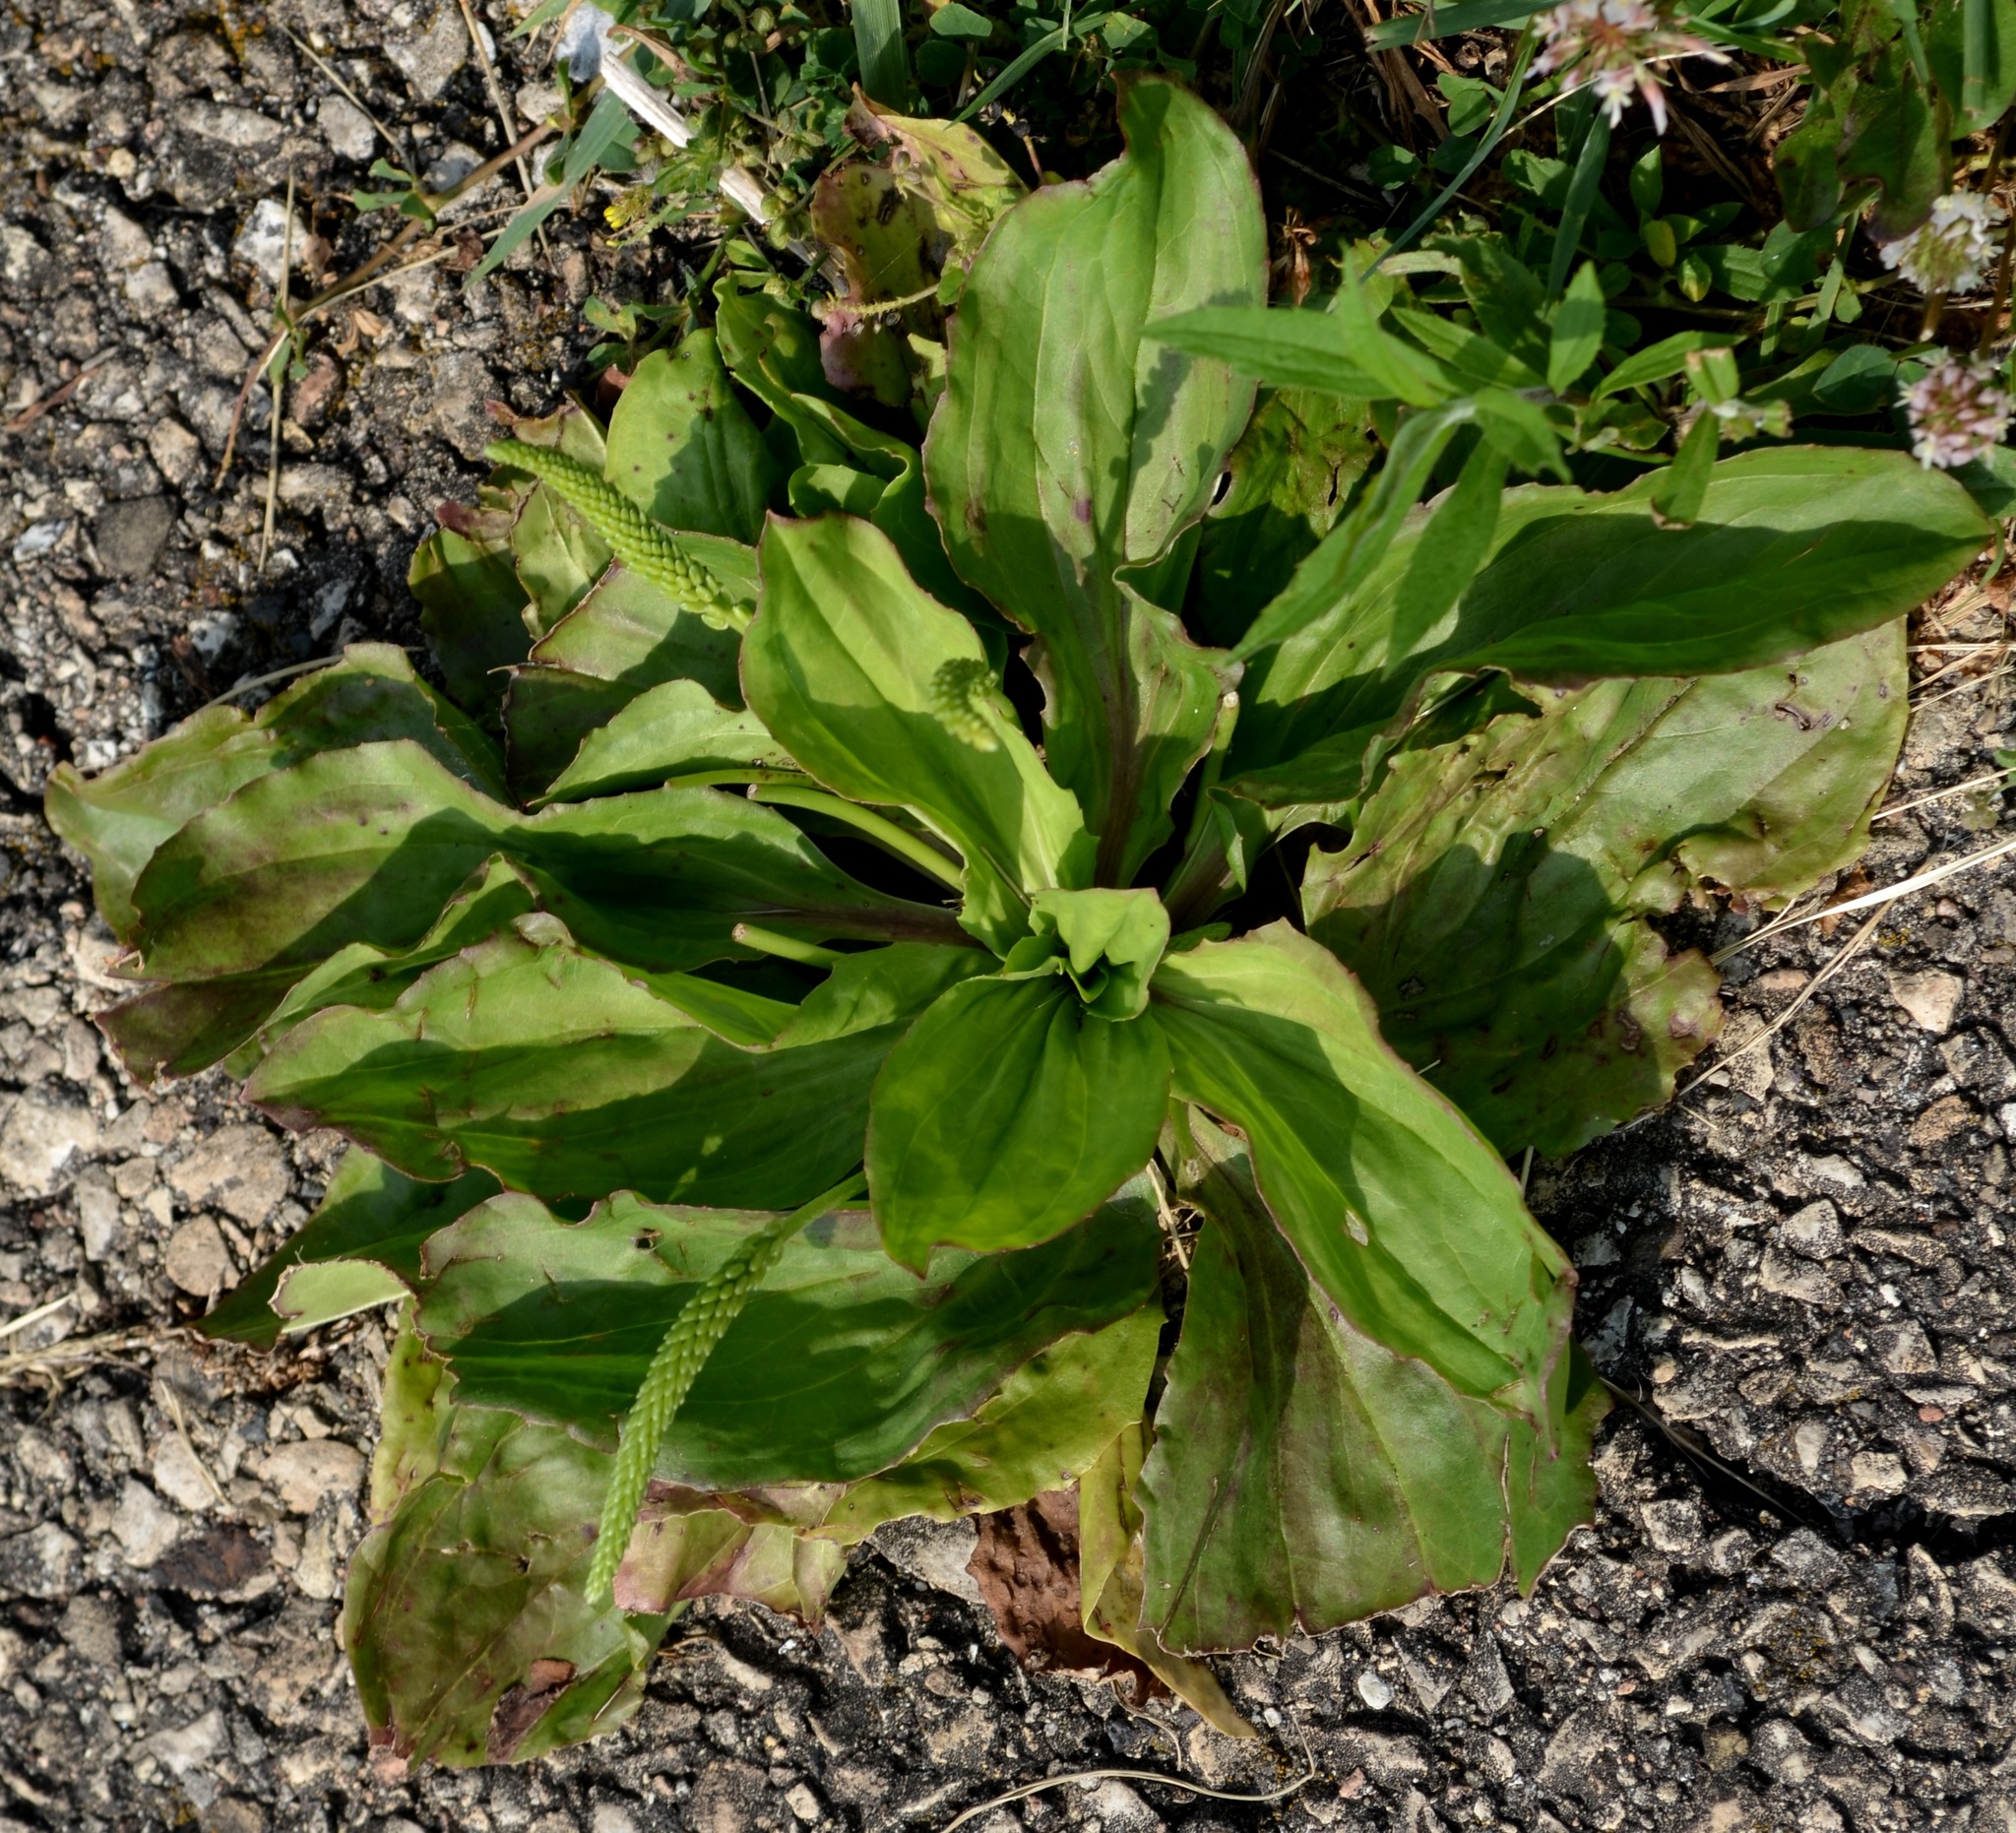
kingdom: Plantae
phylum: Tracheophyta
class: Magnoliopsida
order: Lamiales
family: Plantaginaceae
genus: Plantago
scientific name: Plantago major
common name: Common plantain
